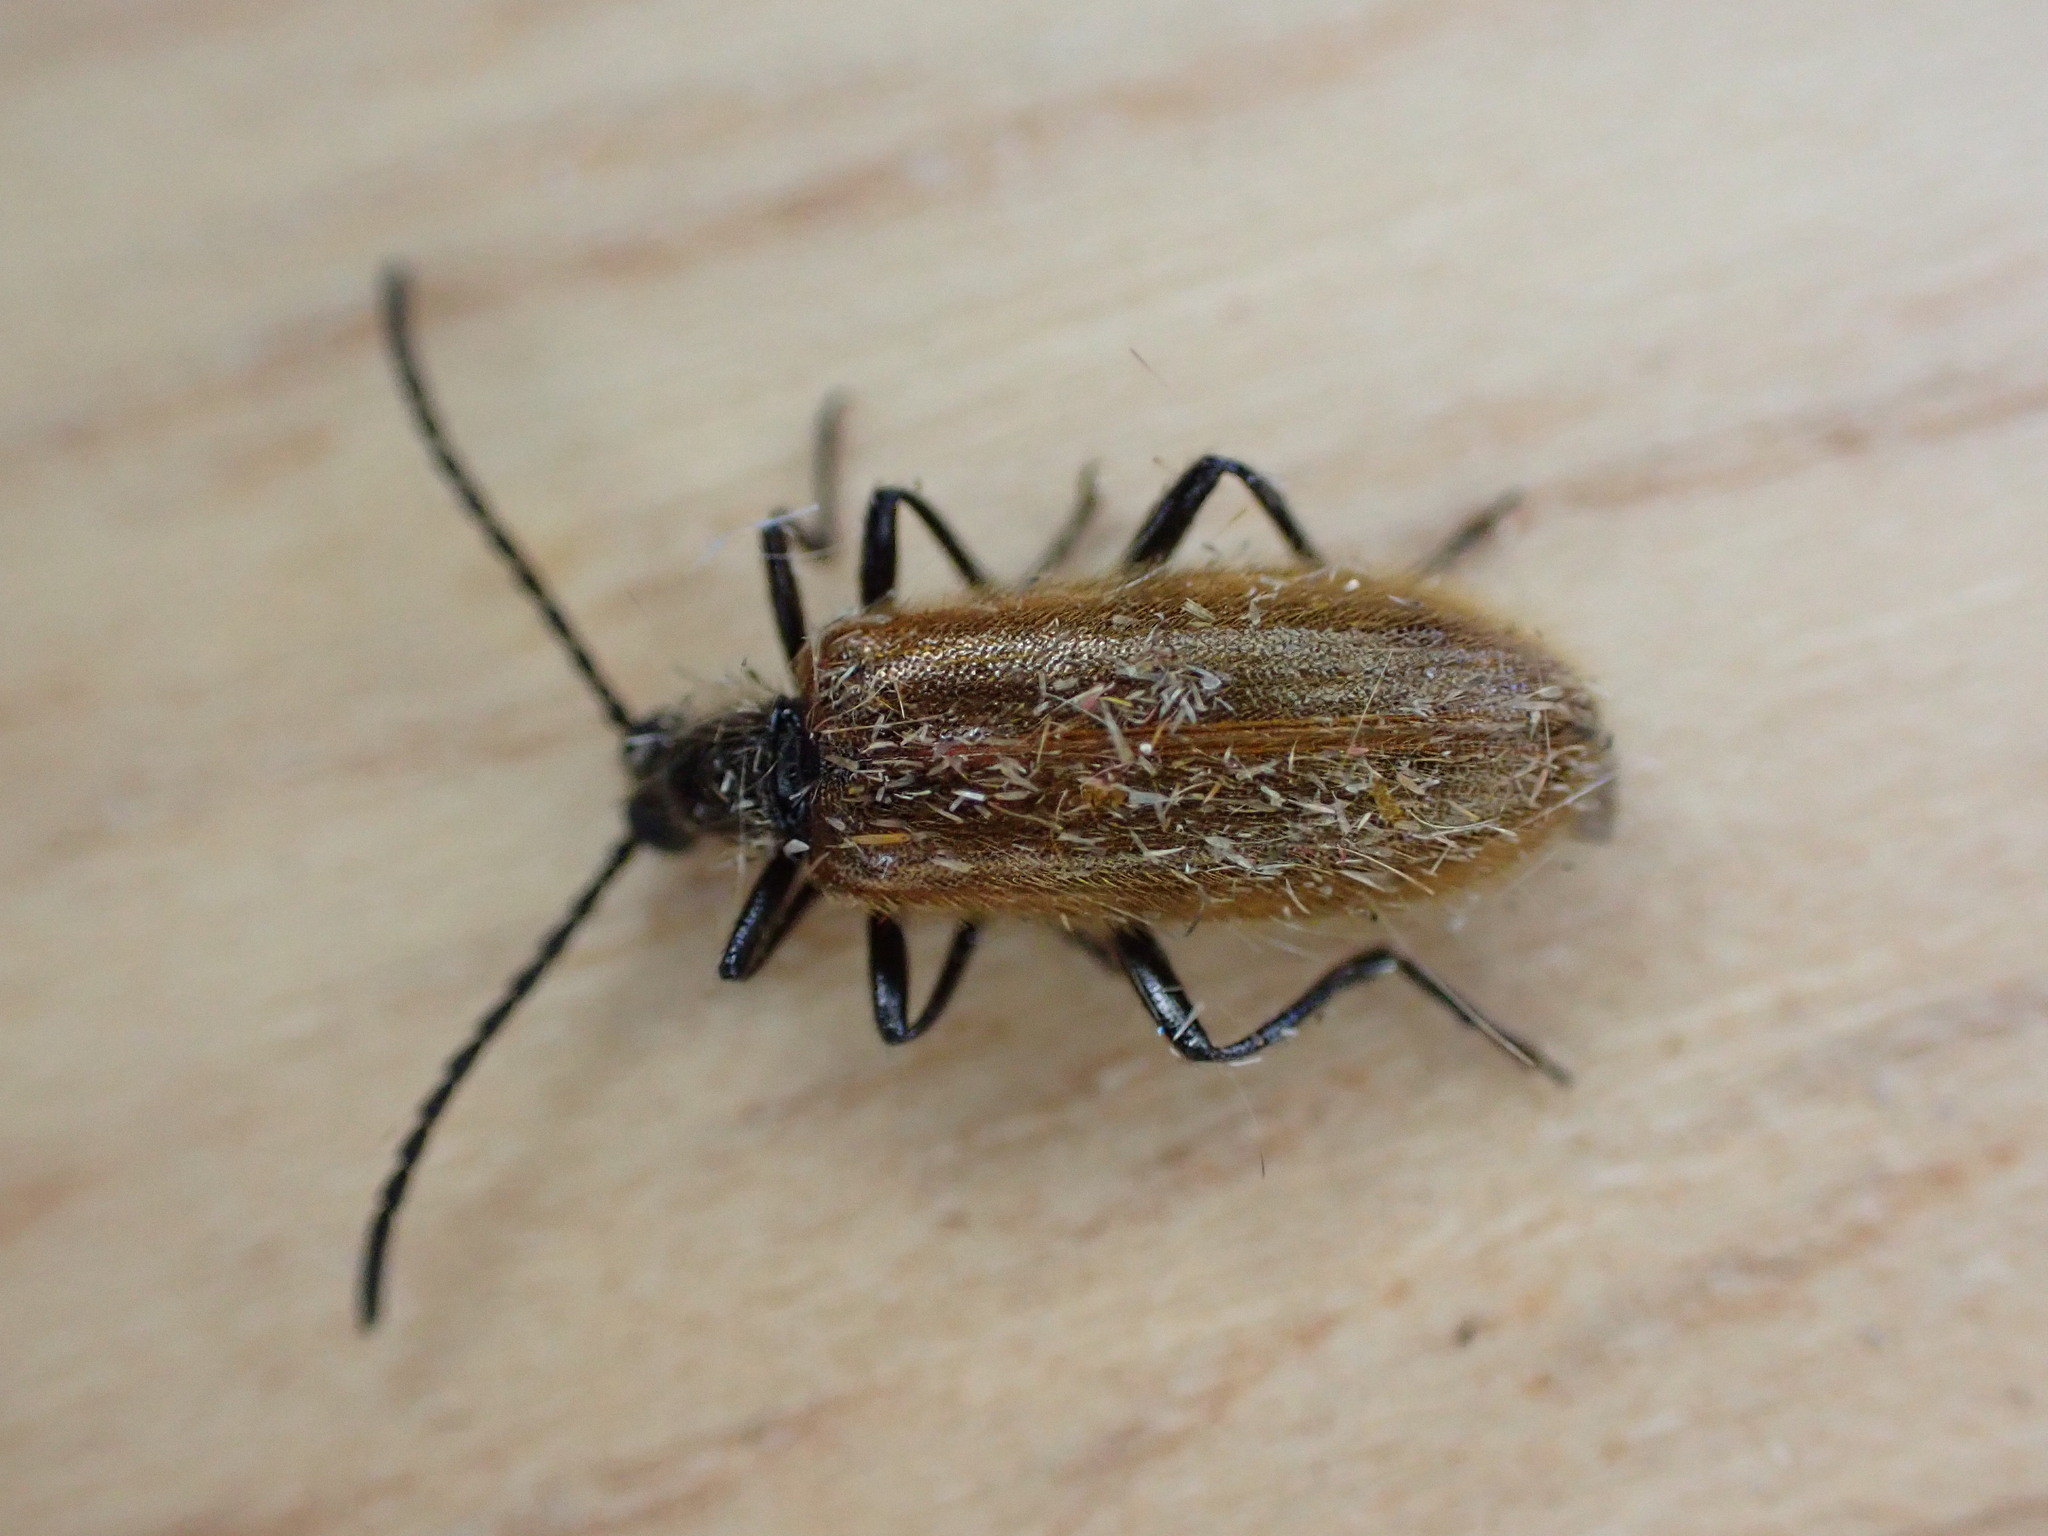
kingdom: Animalia
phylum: Arthropoda
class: Insecta
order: Coleoptera
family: Tenebrionidae
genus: Lagria
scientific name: Lagria hirta
